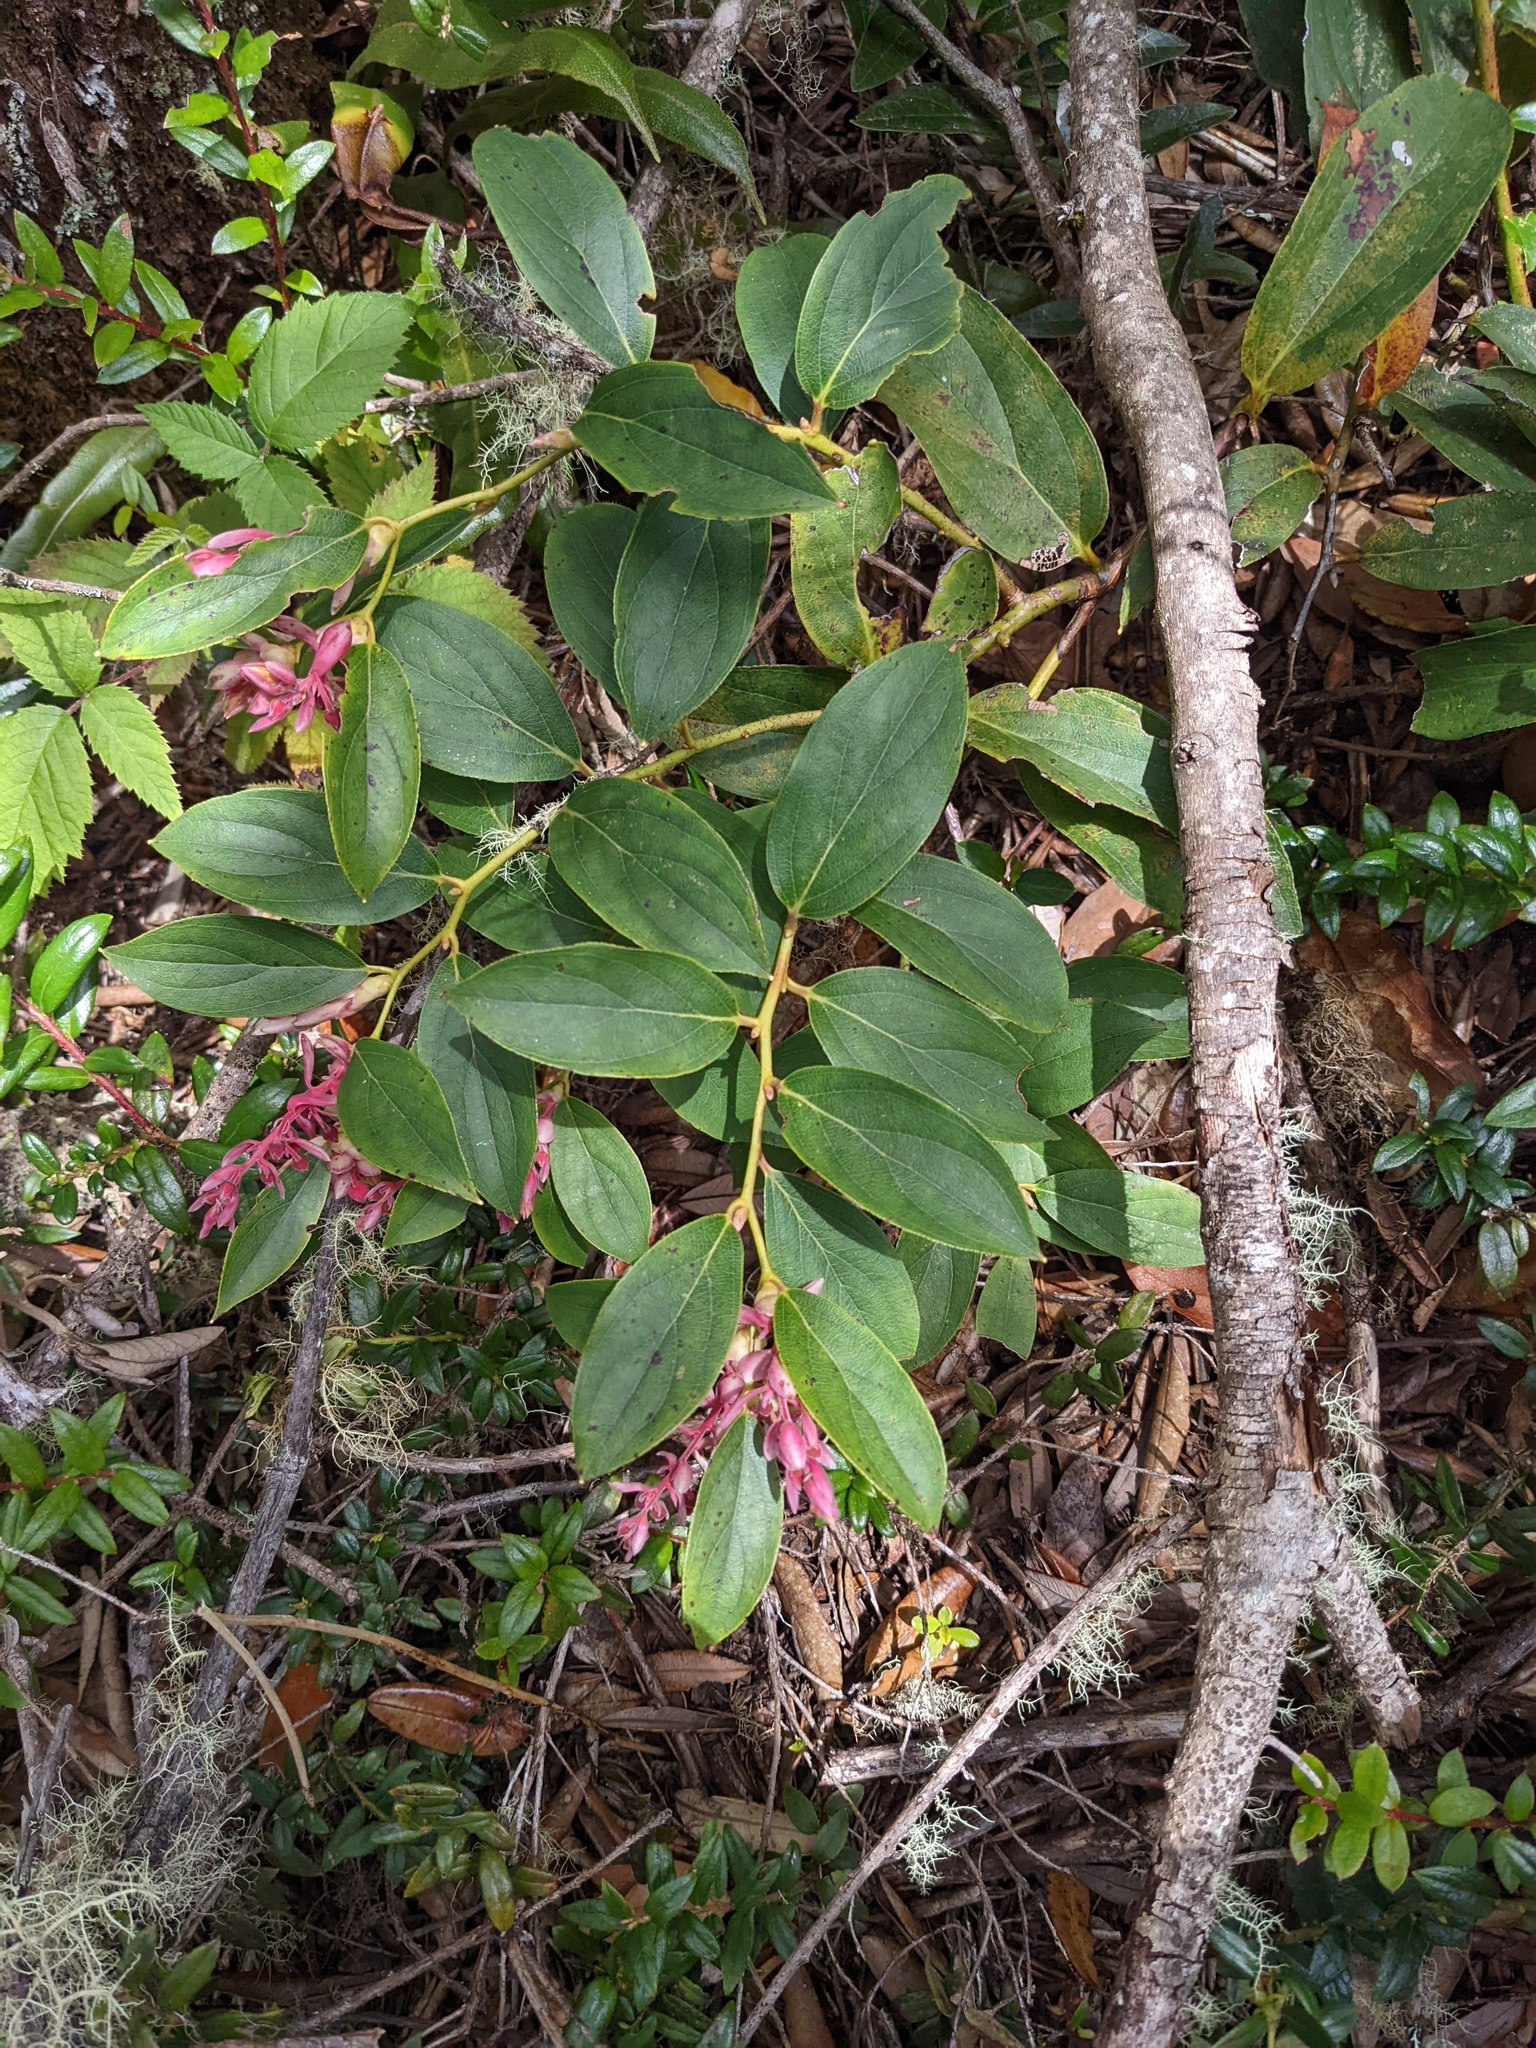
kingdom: Plantae
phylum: Tracheophyta
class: Magnoliopsida
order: Ericales
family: Ericaceae
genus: Gaultheria
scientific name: Gaultheria erecta
